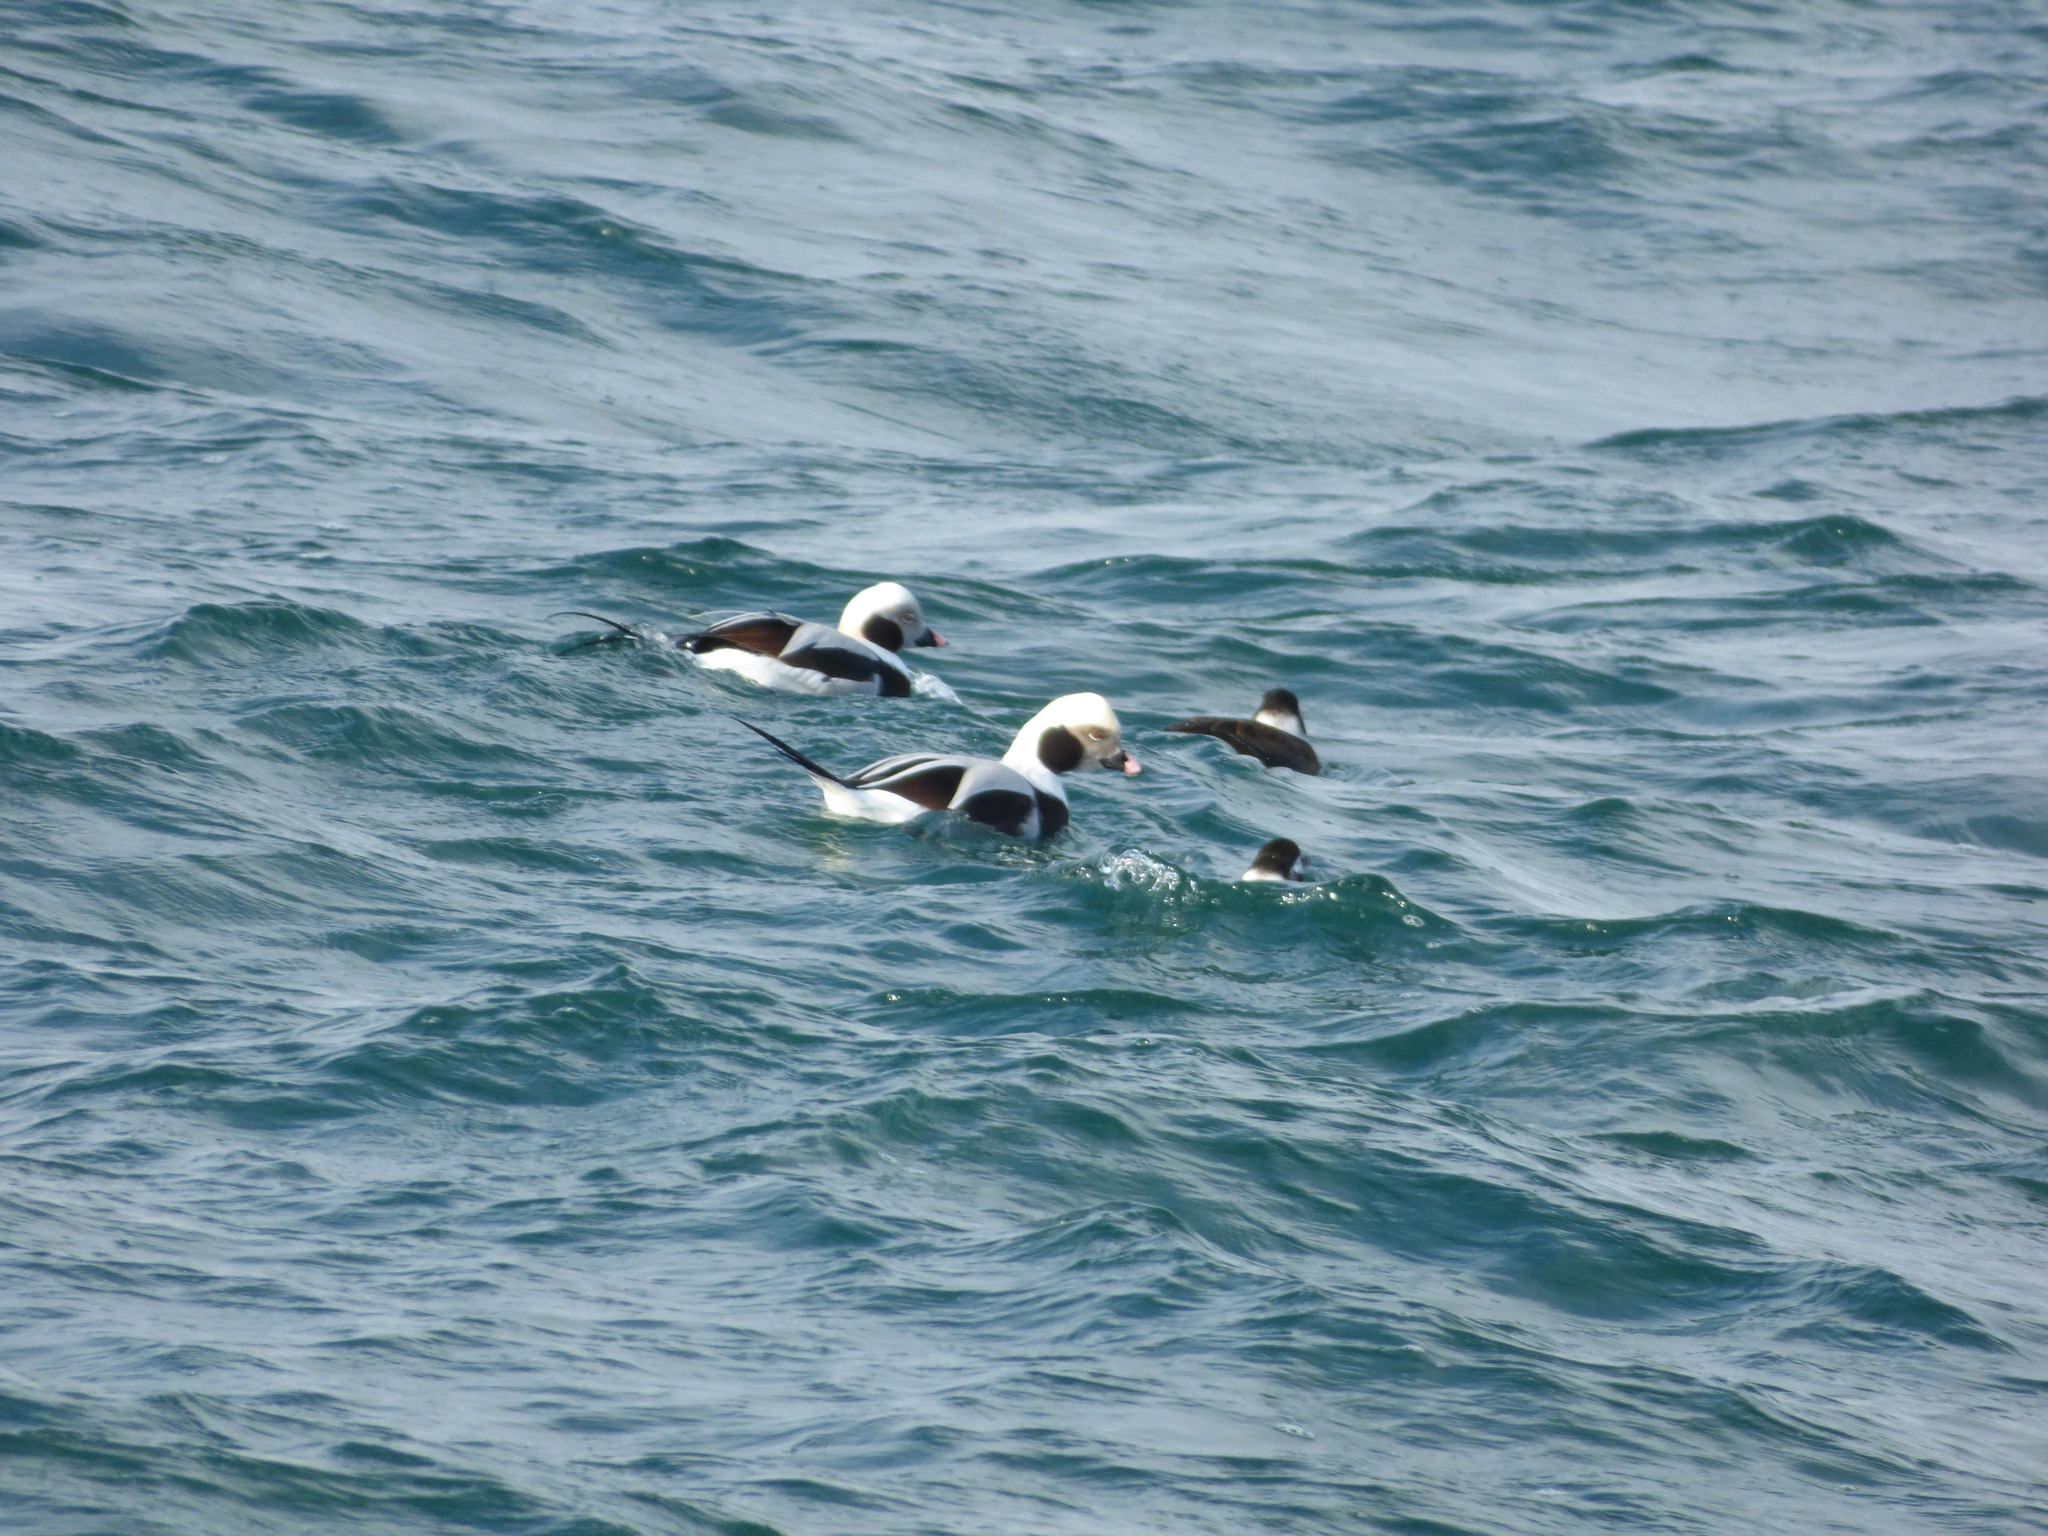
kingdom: Animalia
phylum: Chordata
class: Aves
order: Anseriformes
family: Anatidae
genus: Clangula
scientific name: Clangula hyemalis
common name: Long-tailed duck
